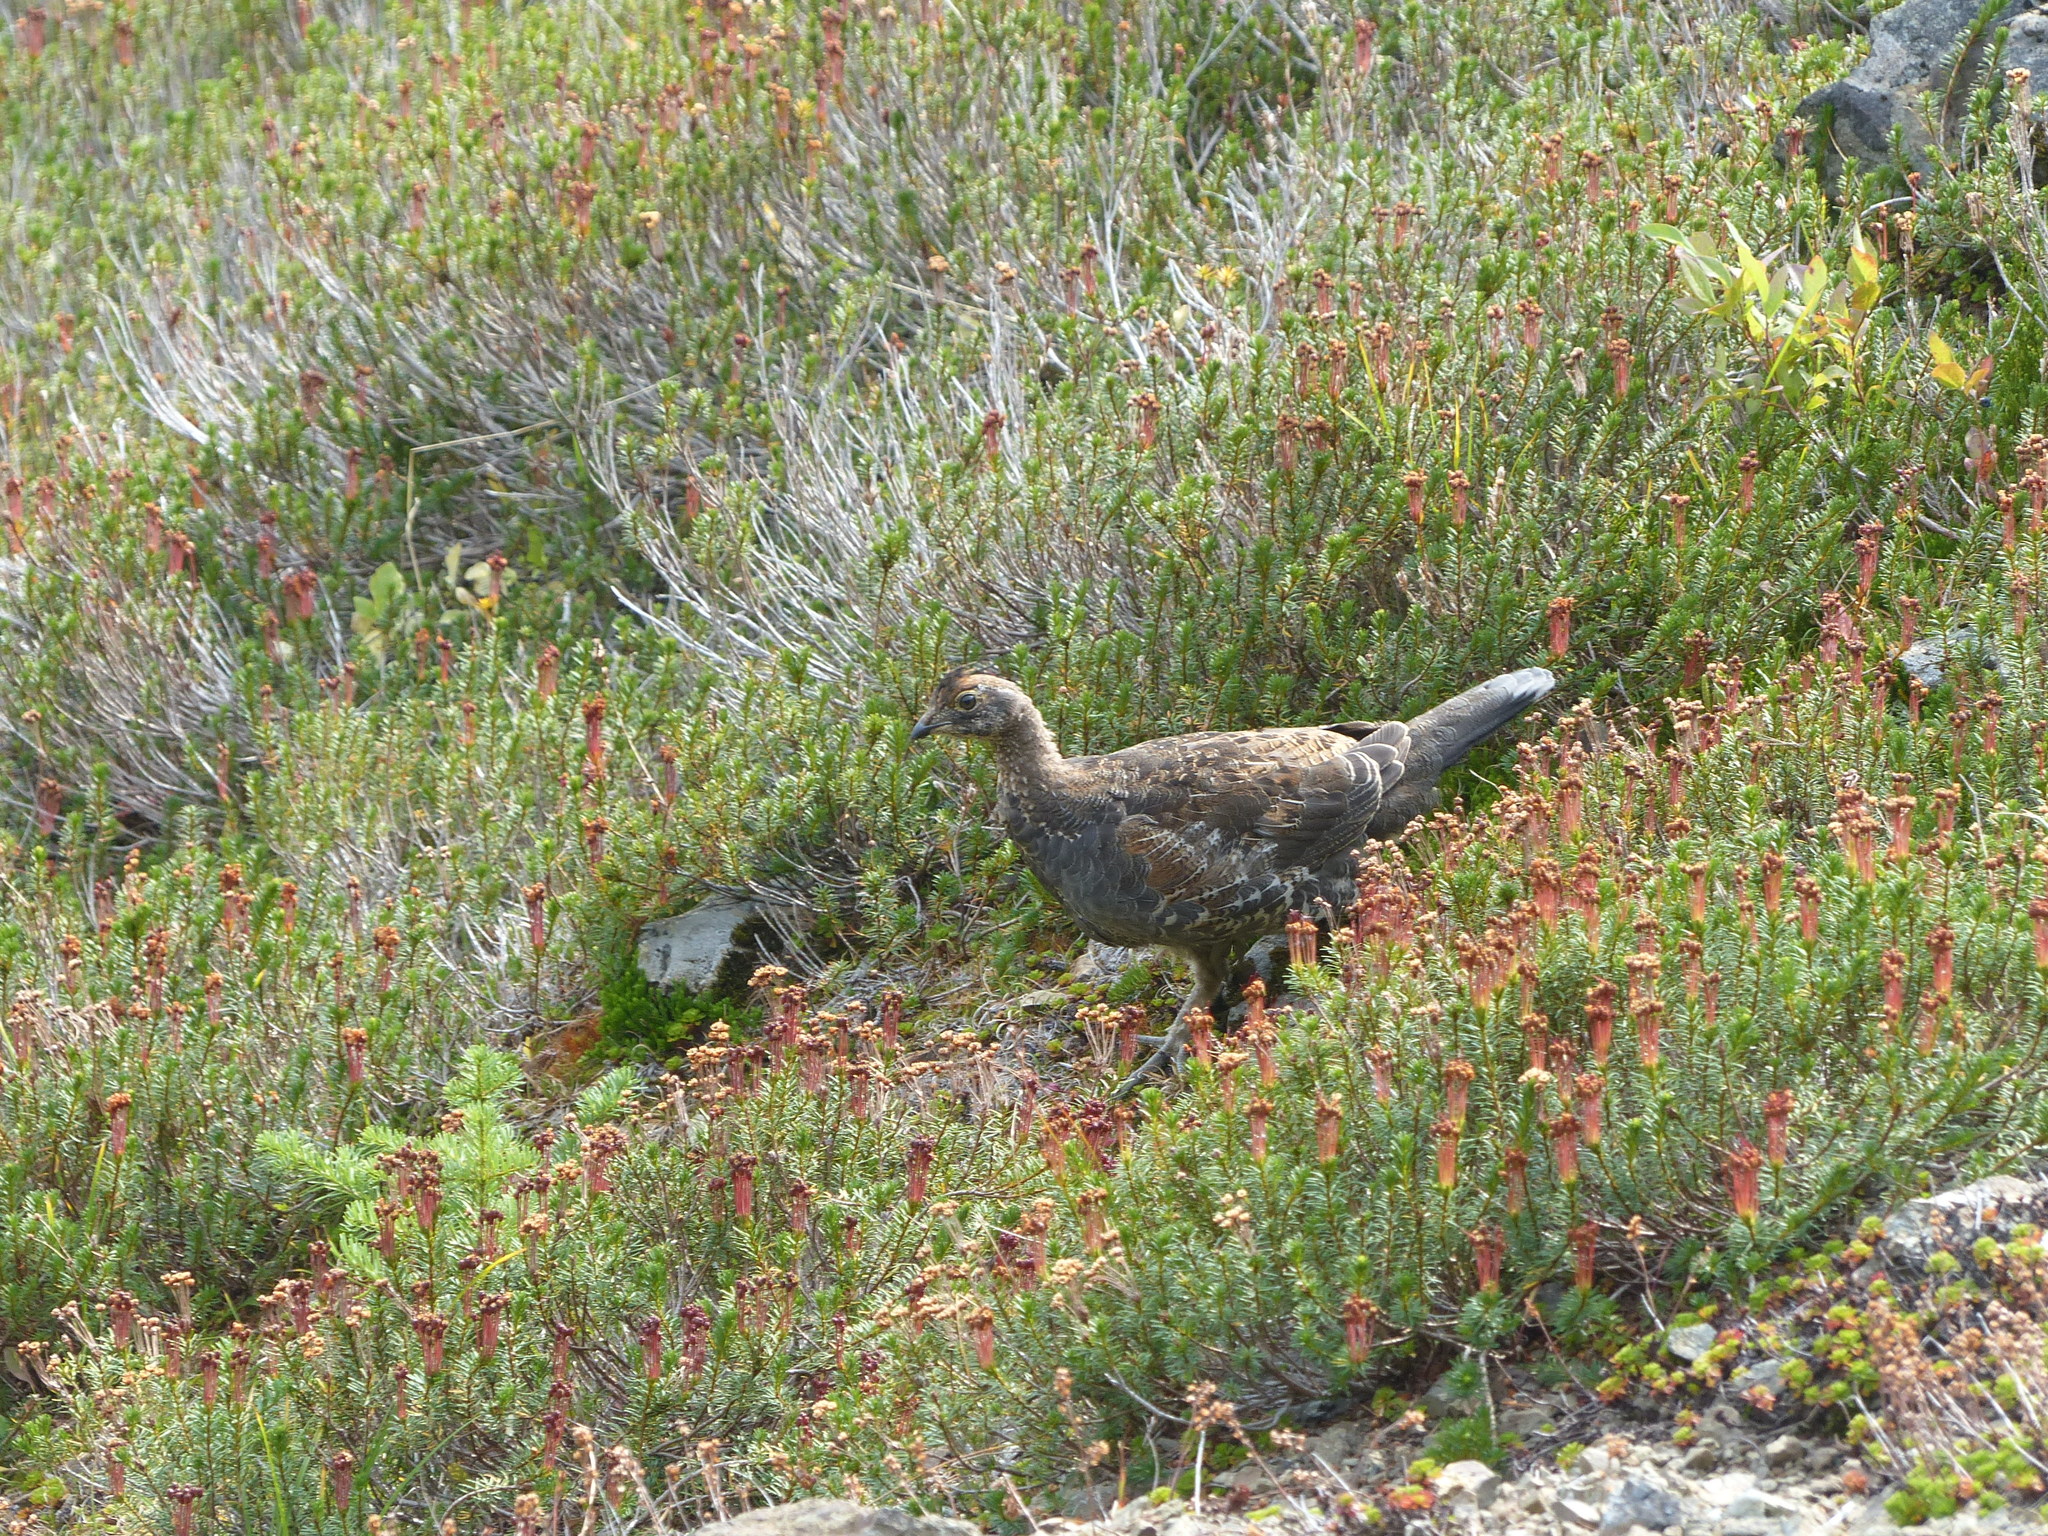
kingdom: Animalia
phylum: Chordata
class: Aves
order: Galliformes
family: Phasianidae
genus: Dendragapus
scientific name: Dendragapus fuliginosus
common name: Sooty grouse
